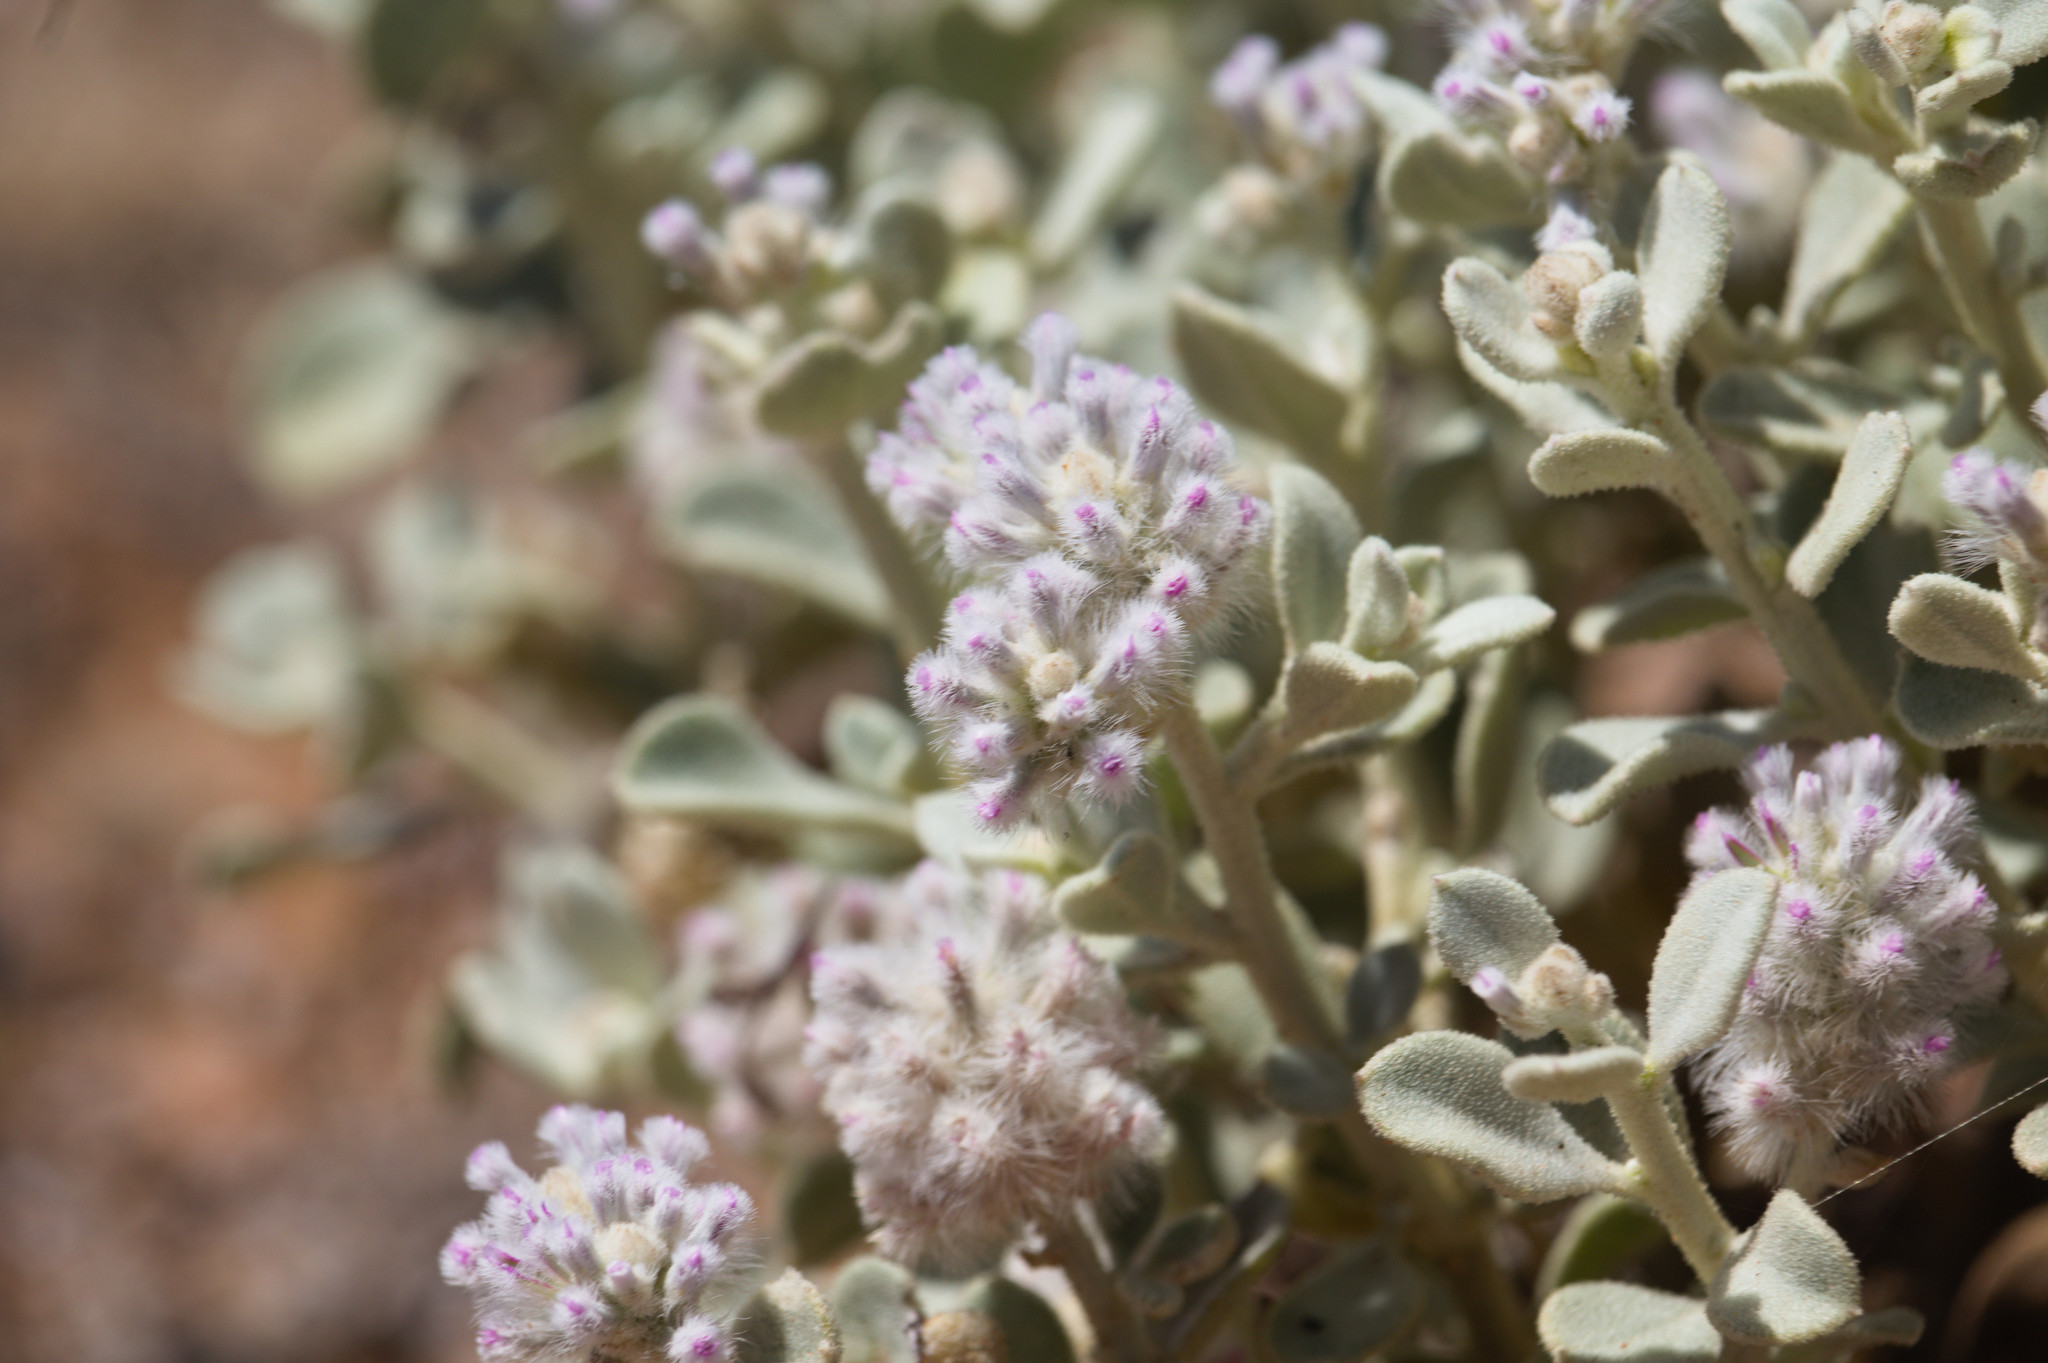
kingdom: Plantae
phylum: Tracheophyta
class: Magnoliopsida
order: Caryophyllales
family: Amaranthaceae
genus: Ptilotus
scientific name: Ptilotus obovatus
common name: Cottonbush
